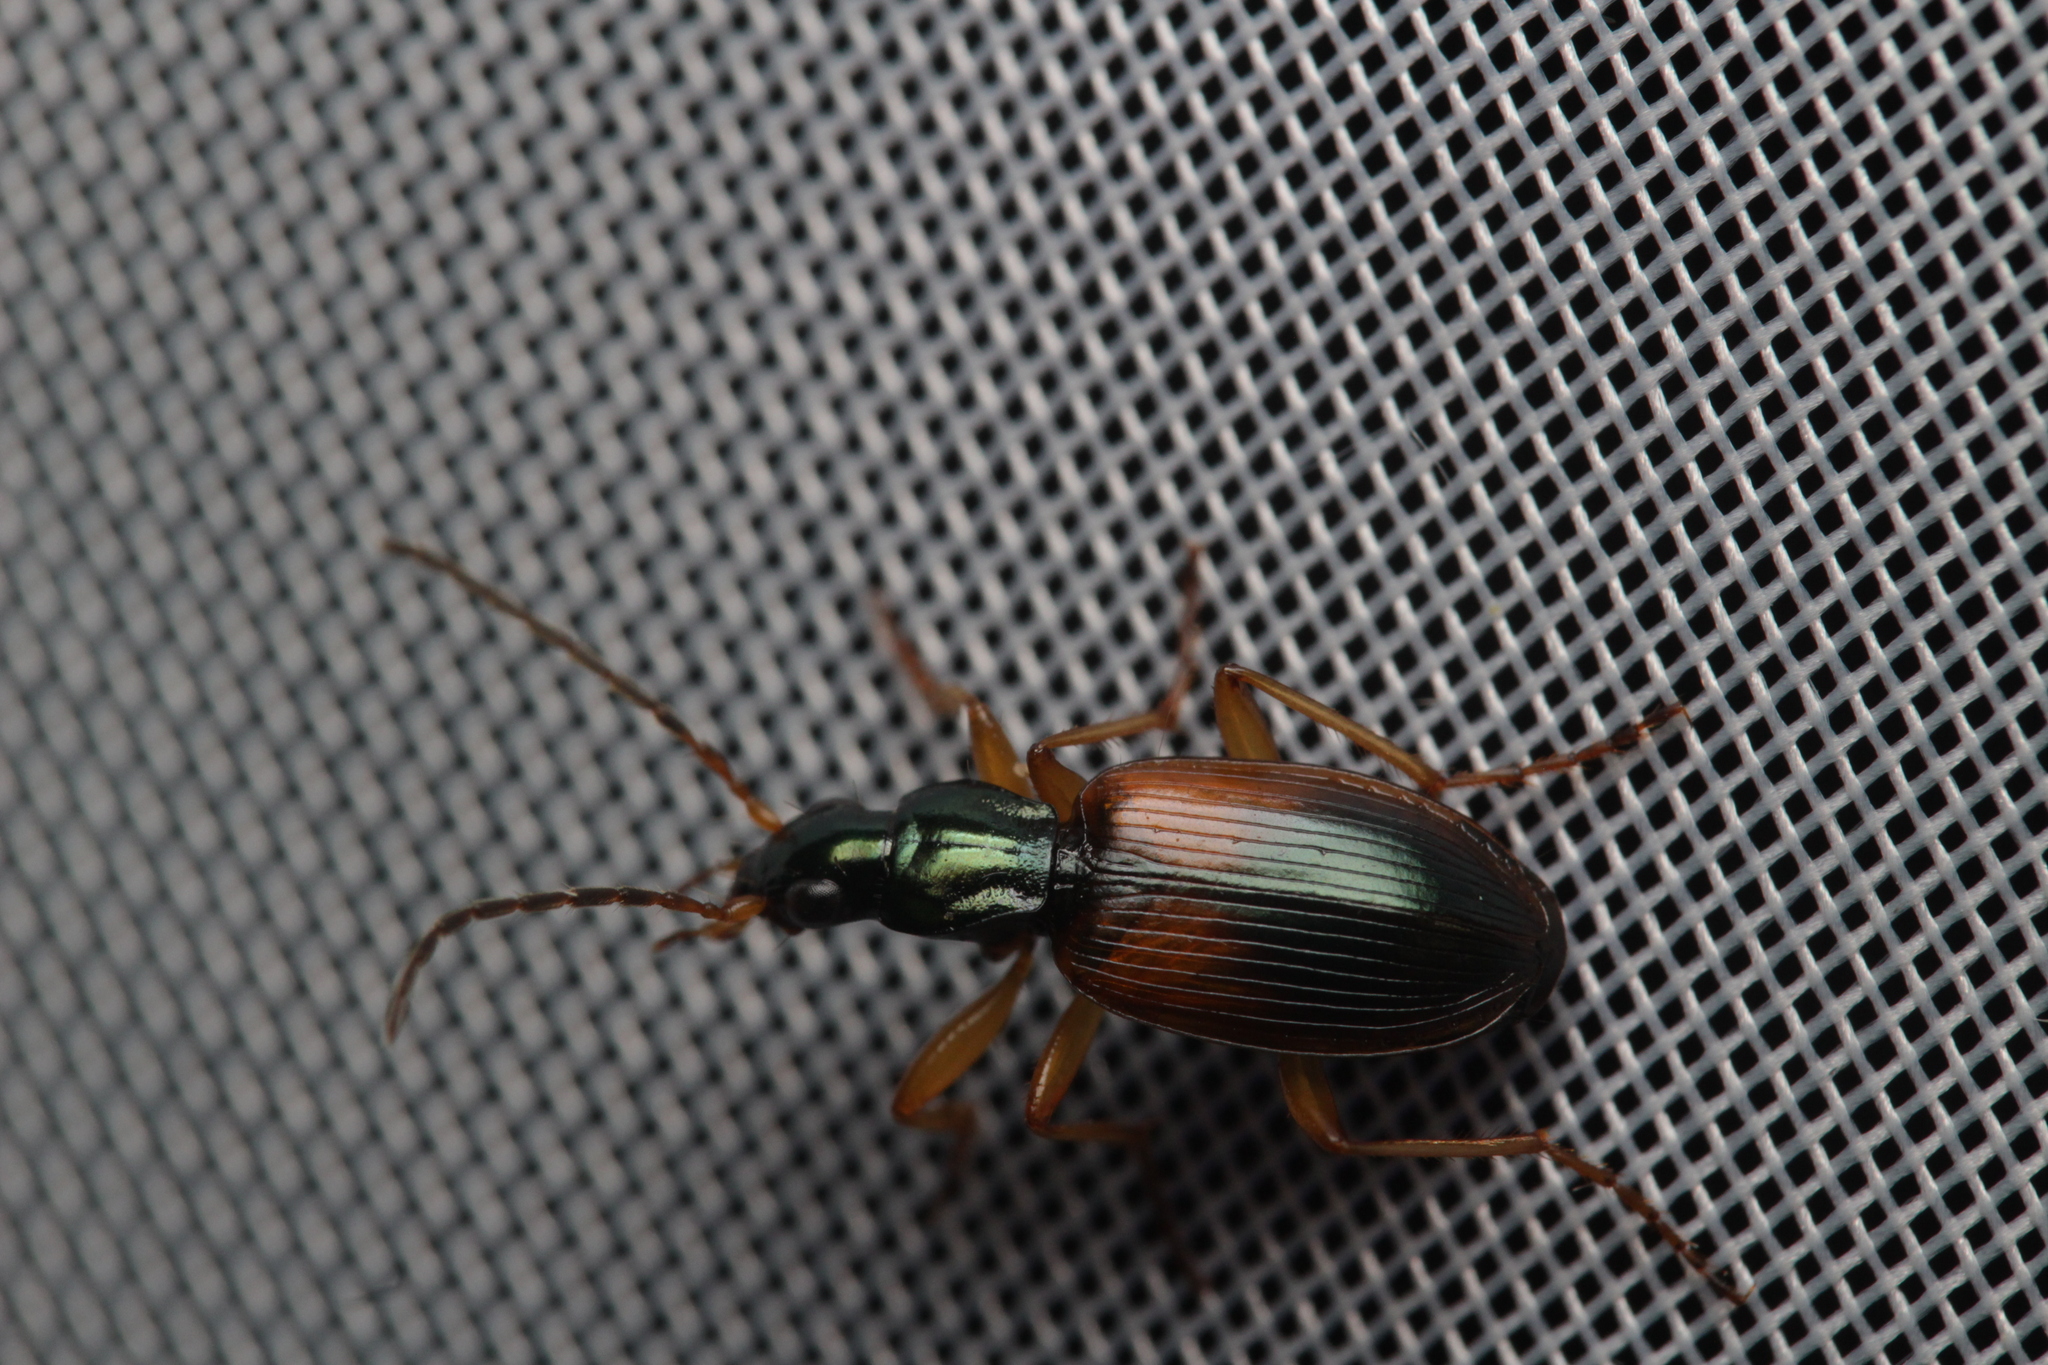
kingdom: Animalia
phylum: Arthropoda
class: Insecta
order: Coleoptera
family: Carabidae
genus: Anchomenus
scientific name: Anchomenus dorsalis
